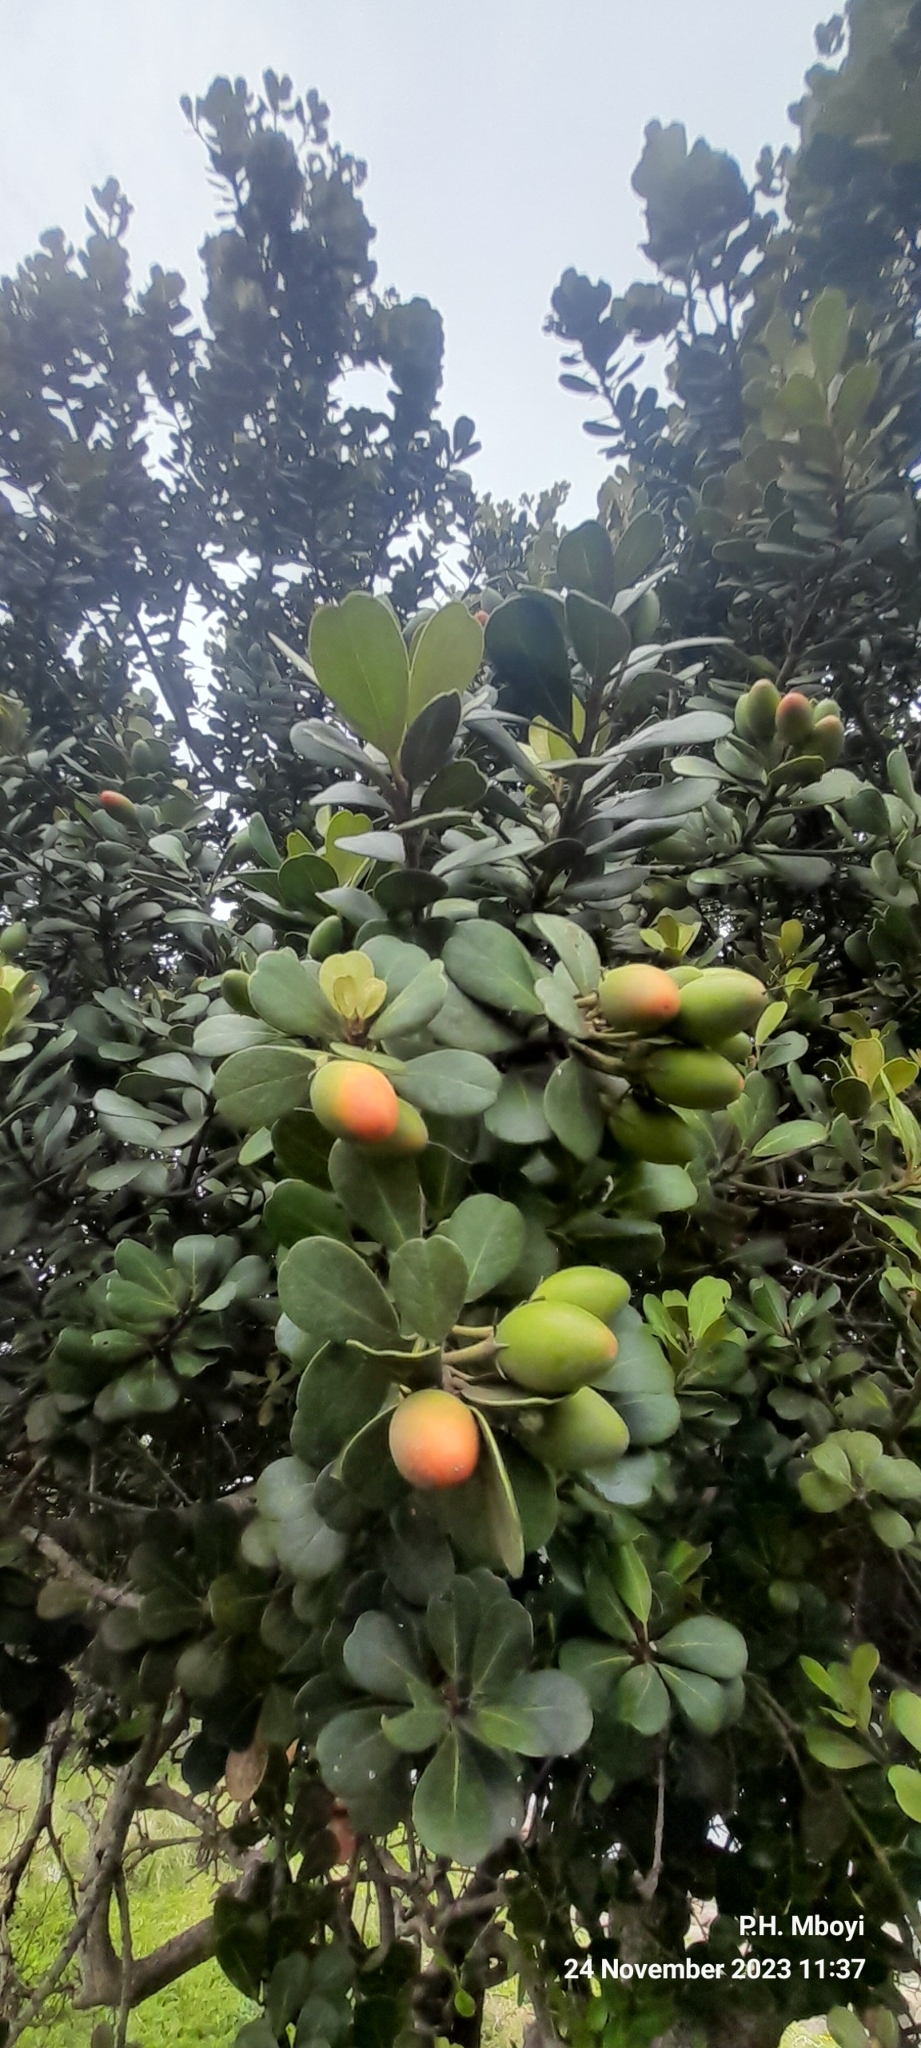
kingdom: Plantae
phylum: Tracheophyta
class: Magnoliopsida
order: Ericales
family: Sapotaceae
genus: Mimusops
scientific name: Mimusops caffra
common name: Coastal red milkwood
